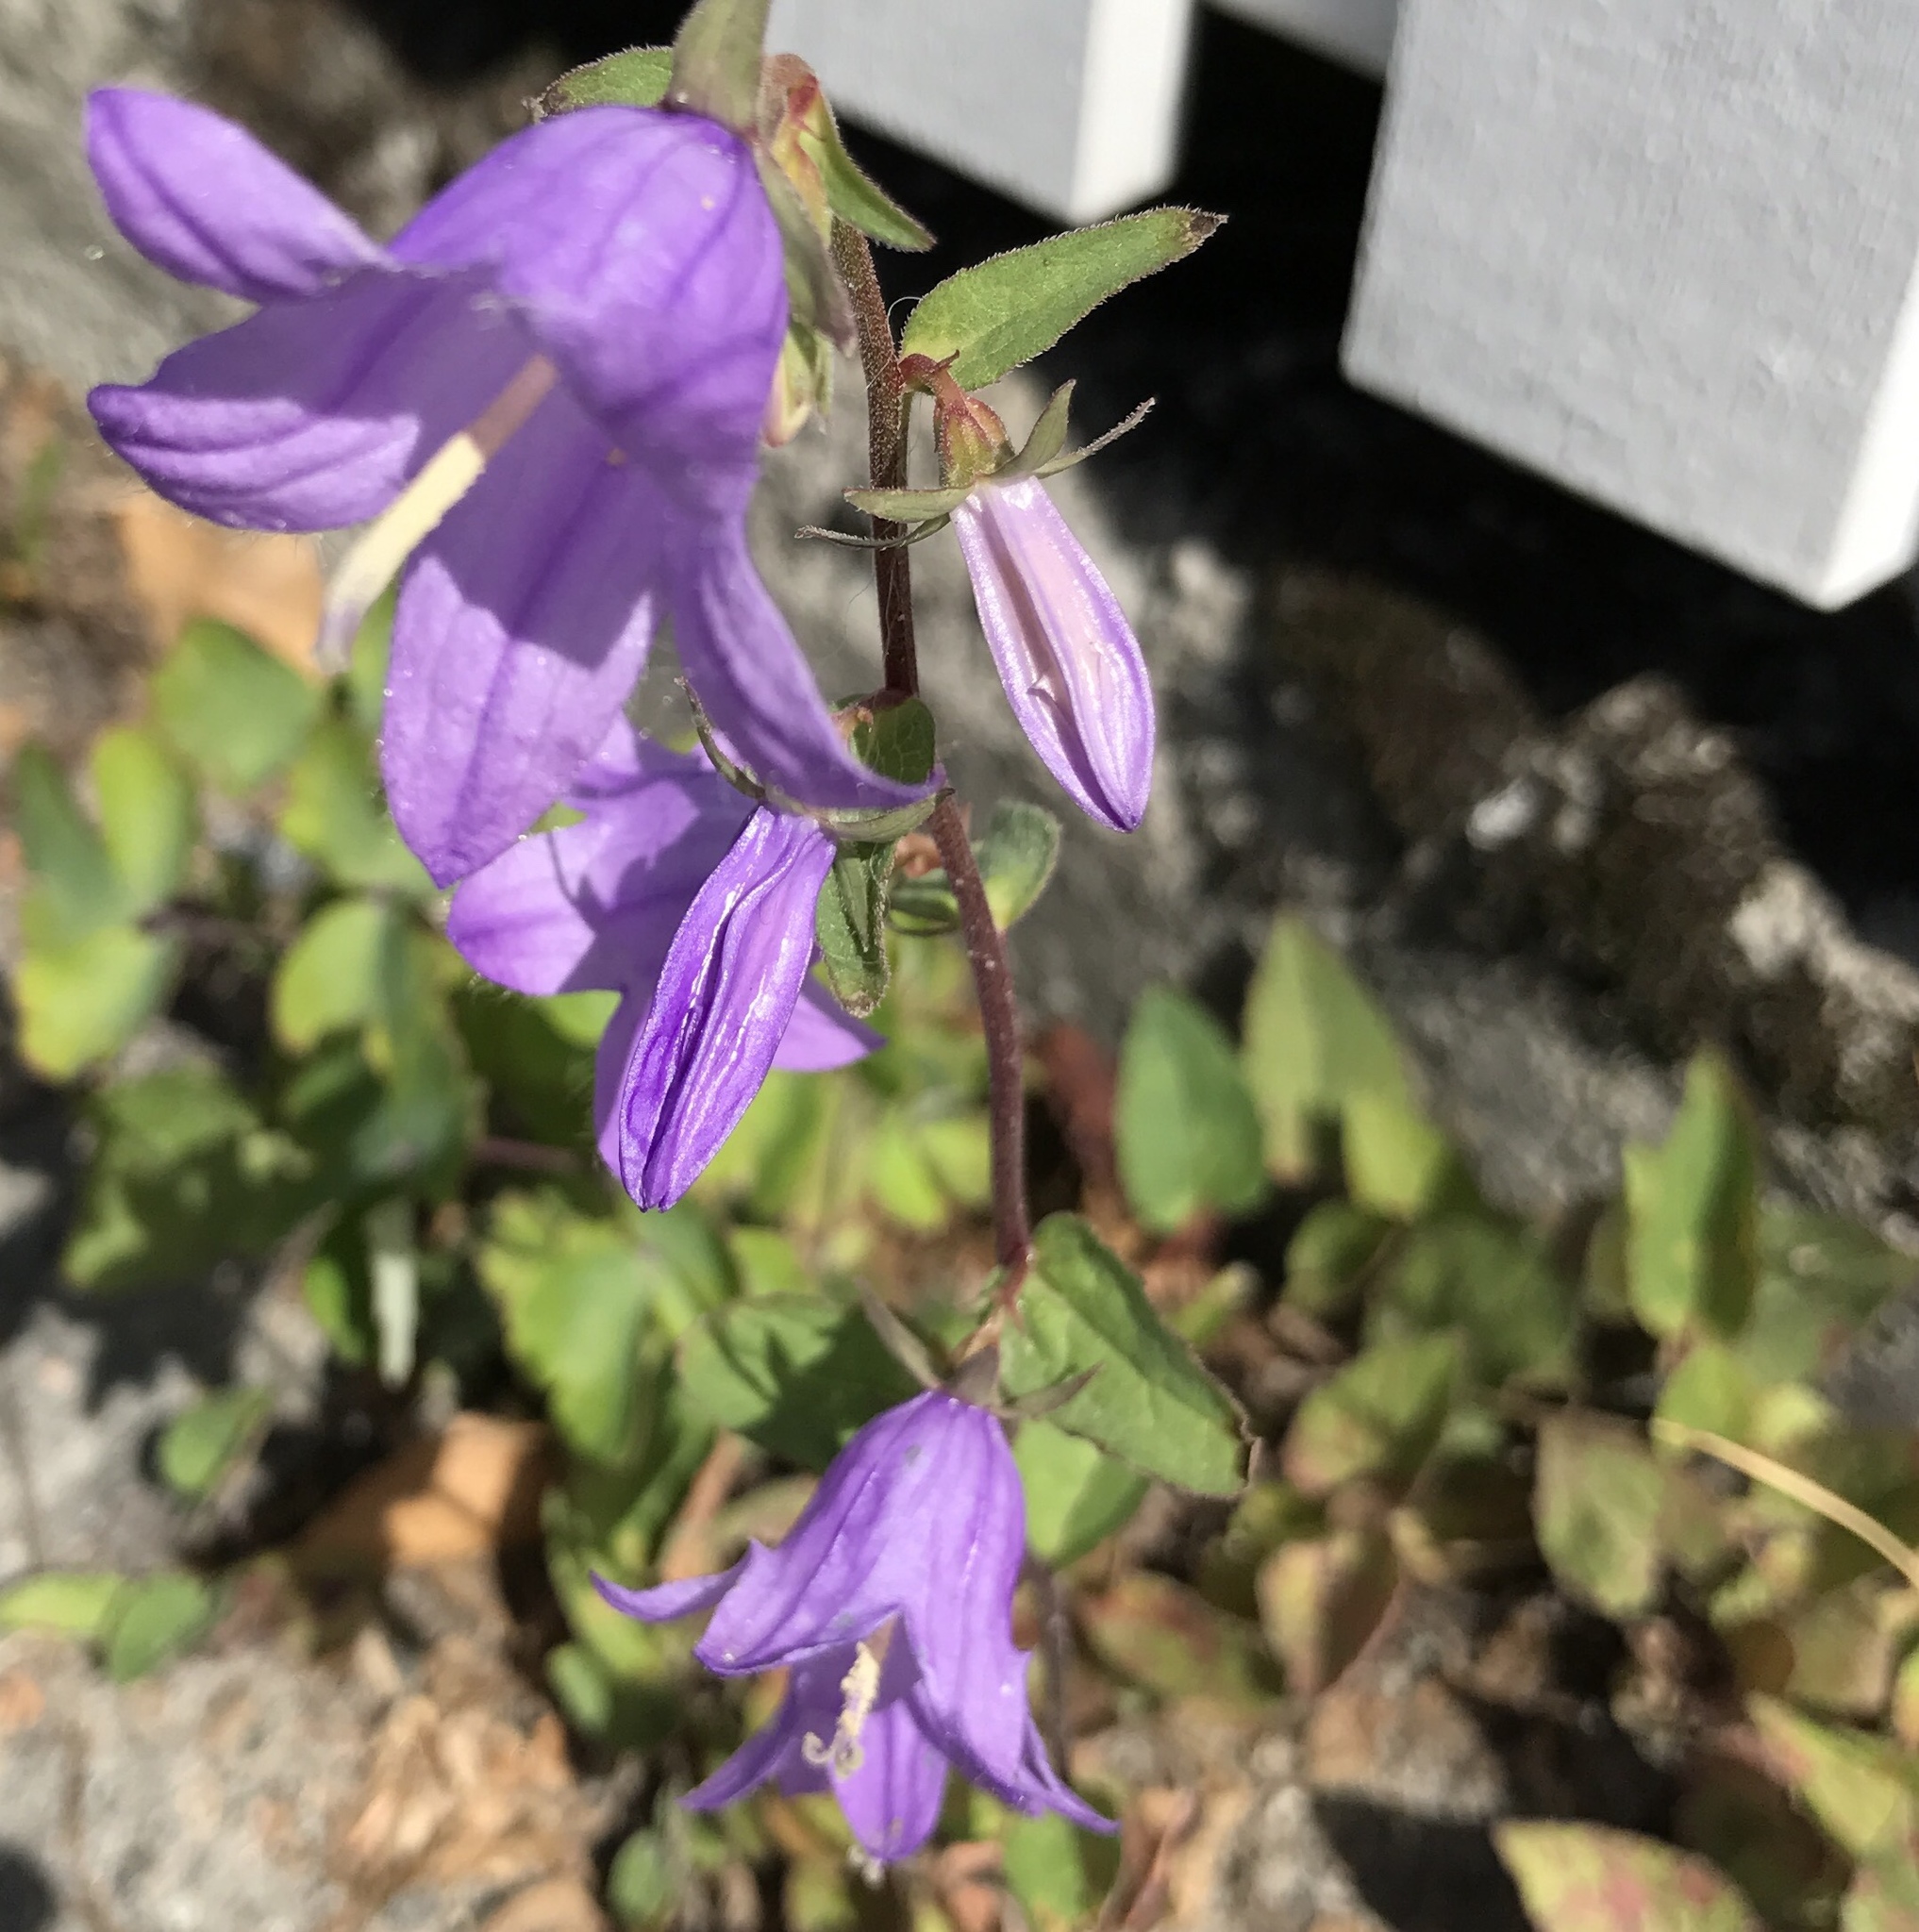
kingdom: Plantae
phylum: Tracheophyta
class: Magnoliopsida
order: Asterales
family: Campanulaceae
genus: Campanula
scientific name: Campanula trachelium
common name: Nettle-leaved bellflower
